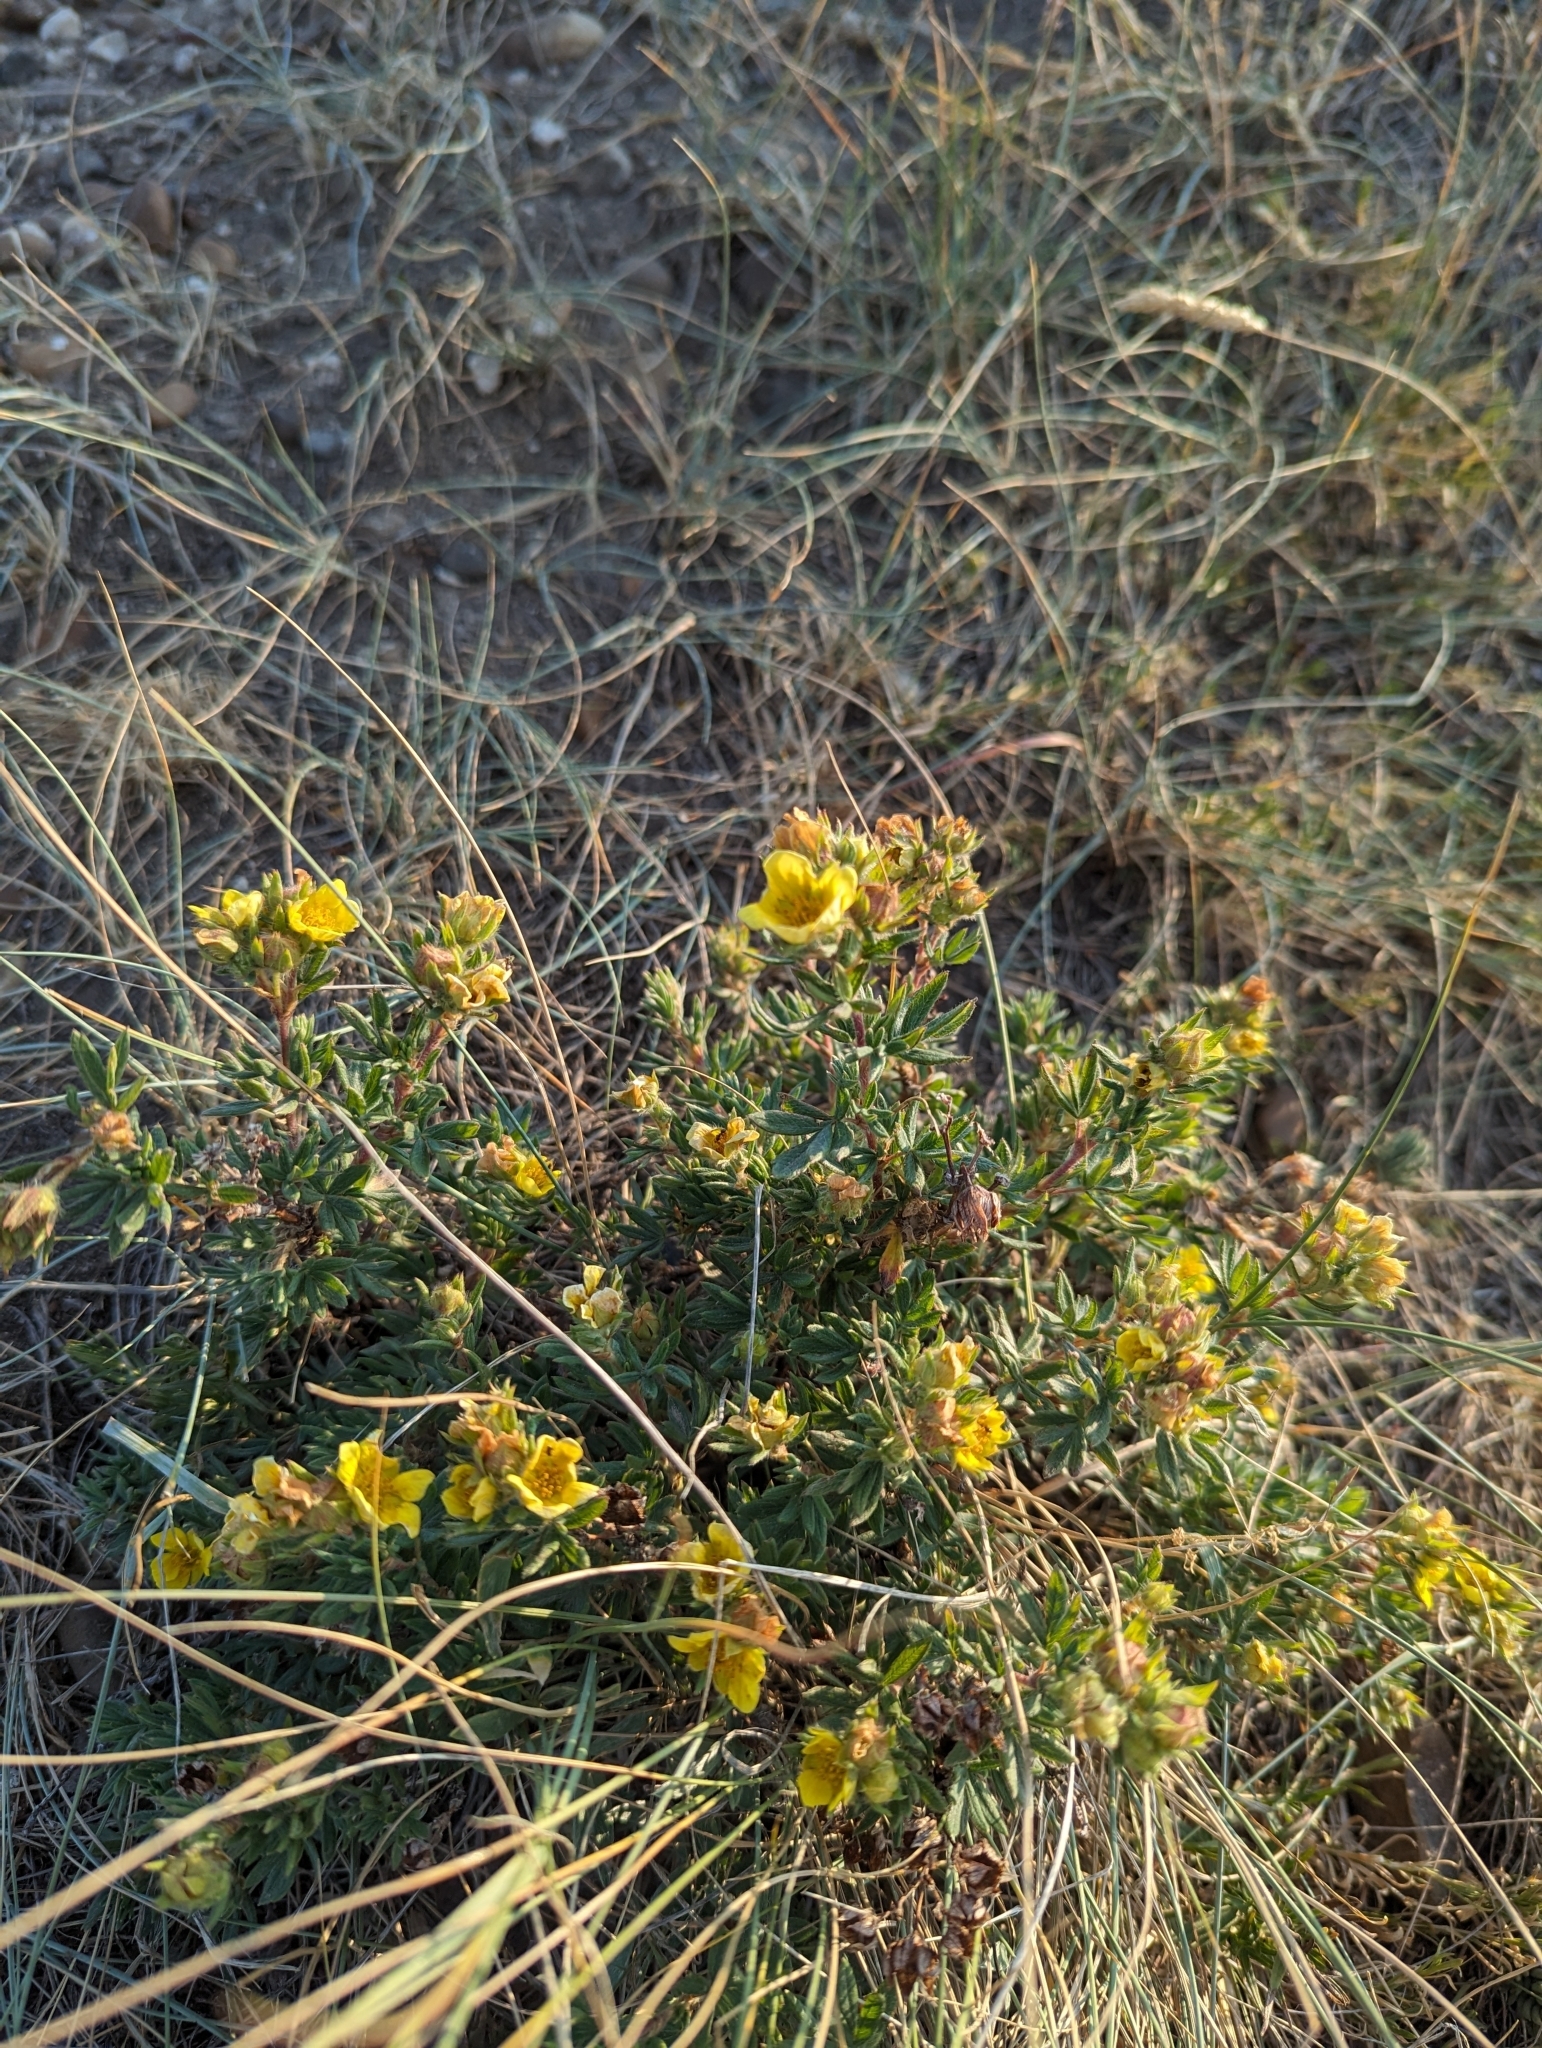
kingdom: Plantae
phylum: Tracheophyta
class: Magnoliopsida
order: Rosales
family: Rosaceae
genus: Dasiphora
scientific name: Dasiphora fruticosa
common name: Shrubby cinquefoil
